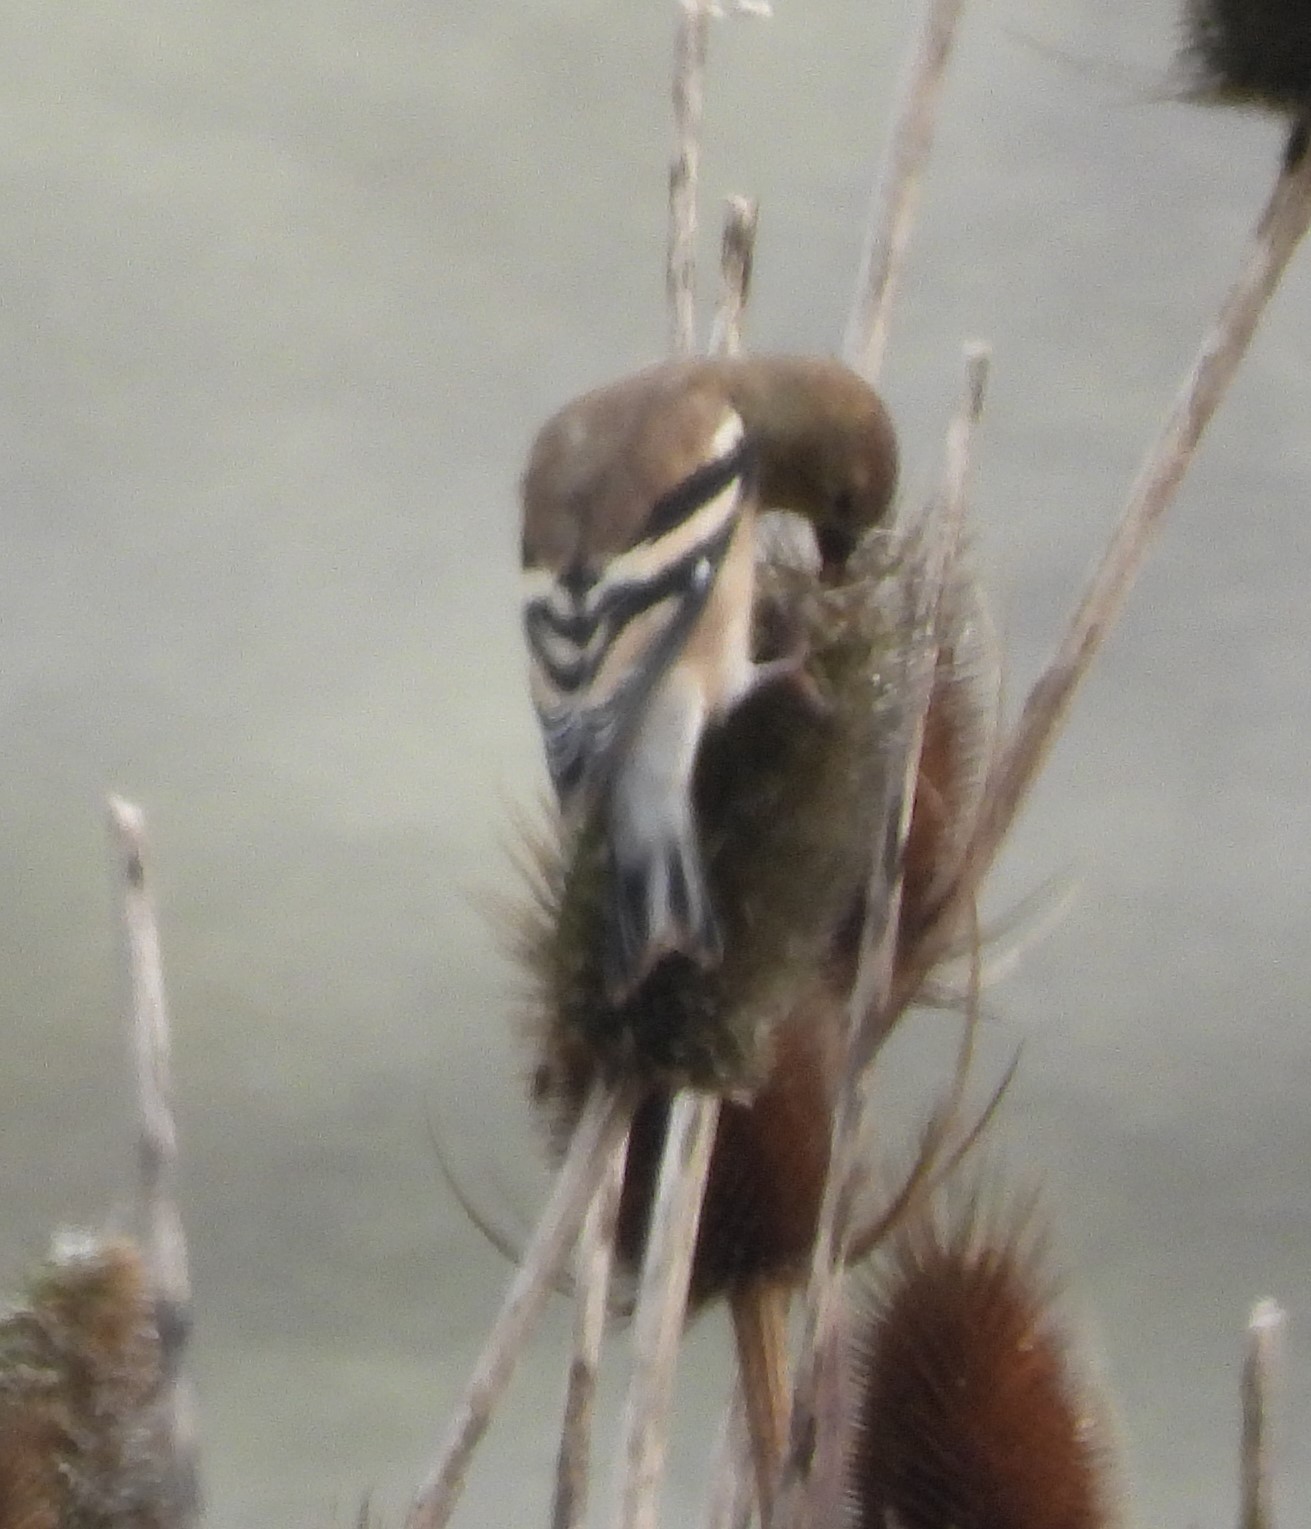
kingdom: Animalia
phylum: Chordata
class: Aves
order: Passeriformes
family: Fringillidae
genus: Spinus
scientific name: Spinus tristis
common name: American goldfinch
